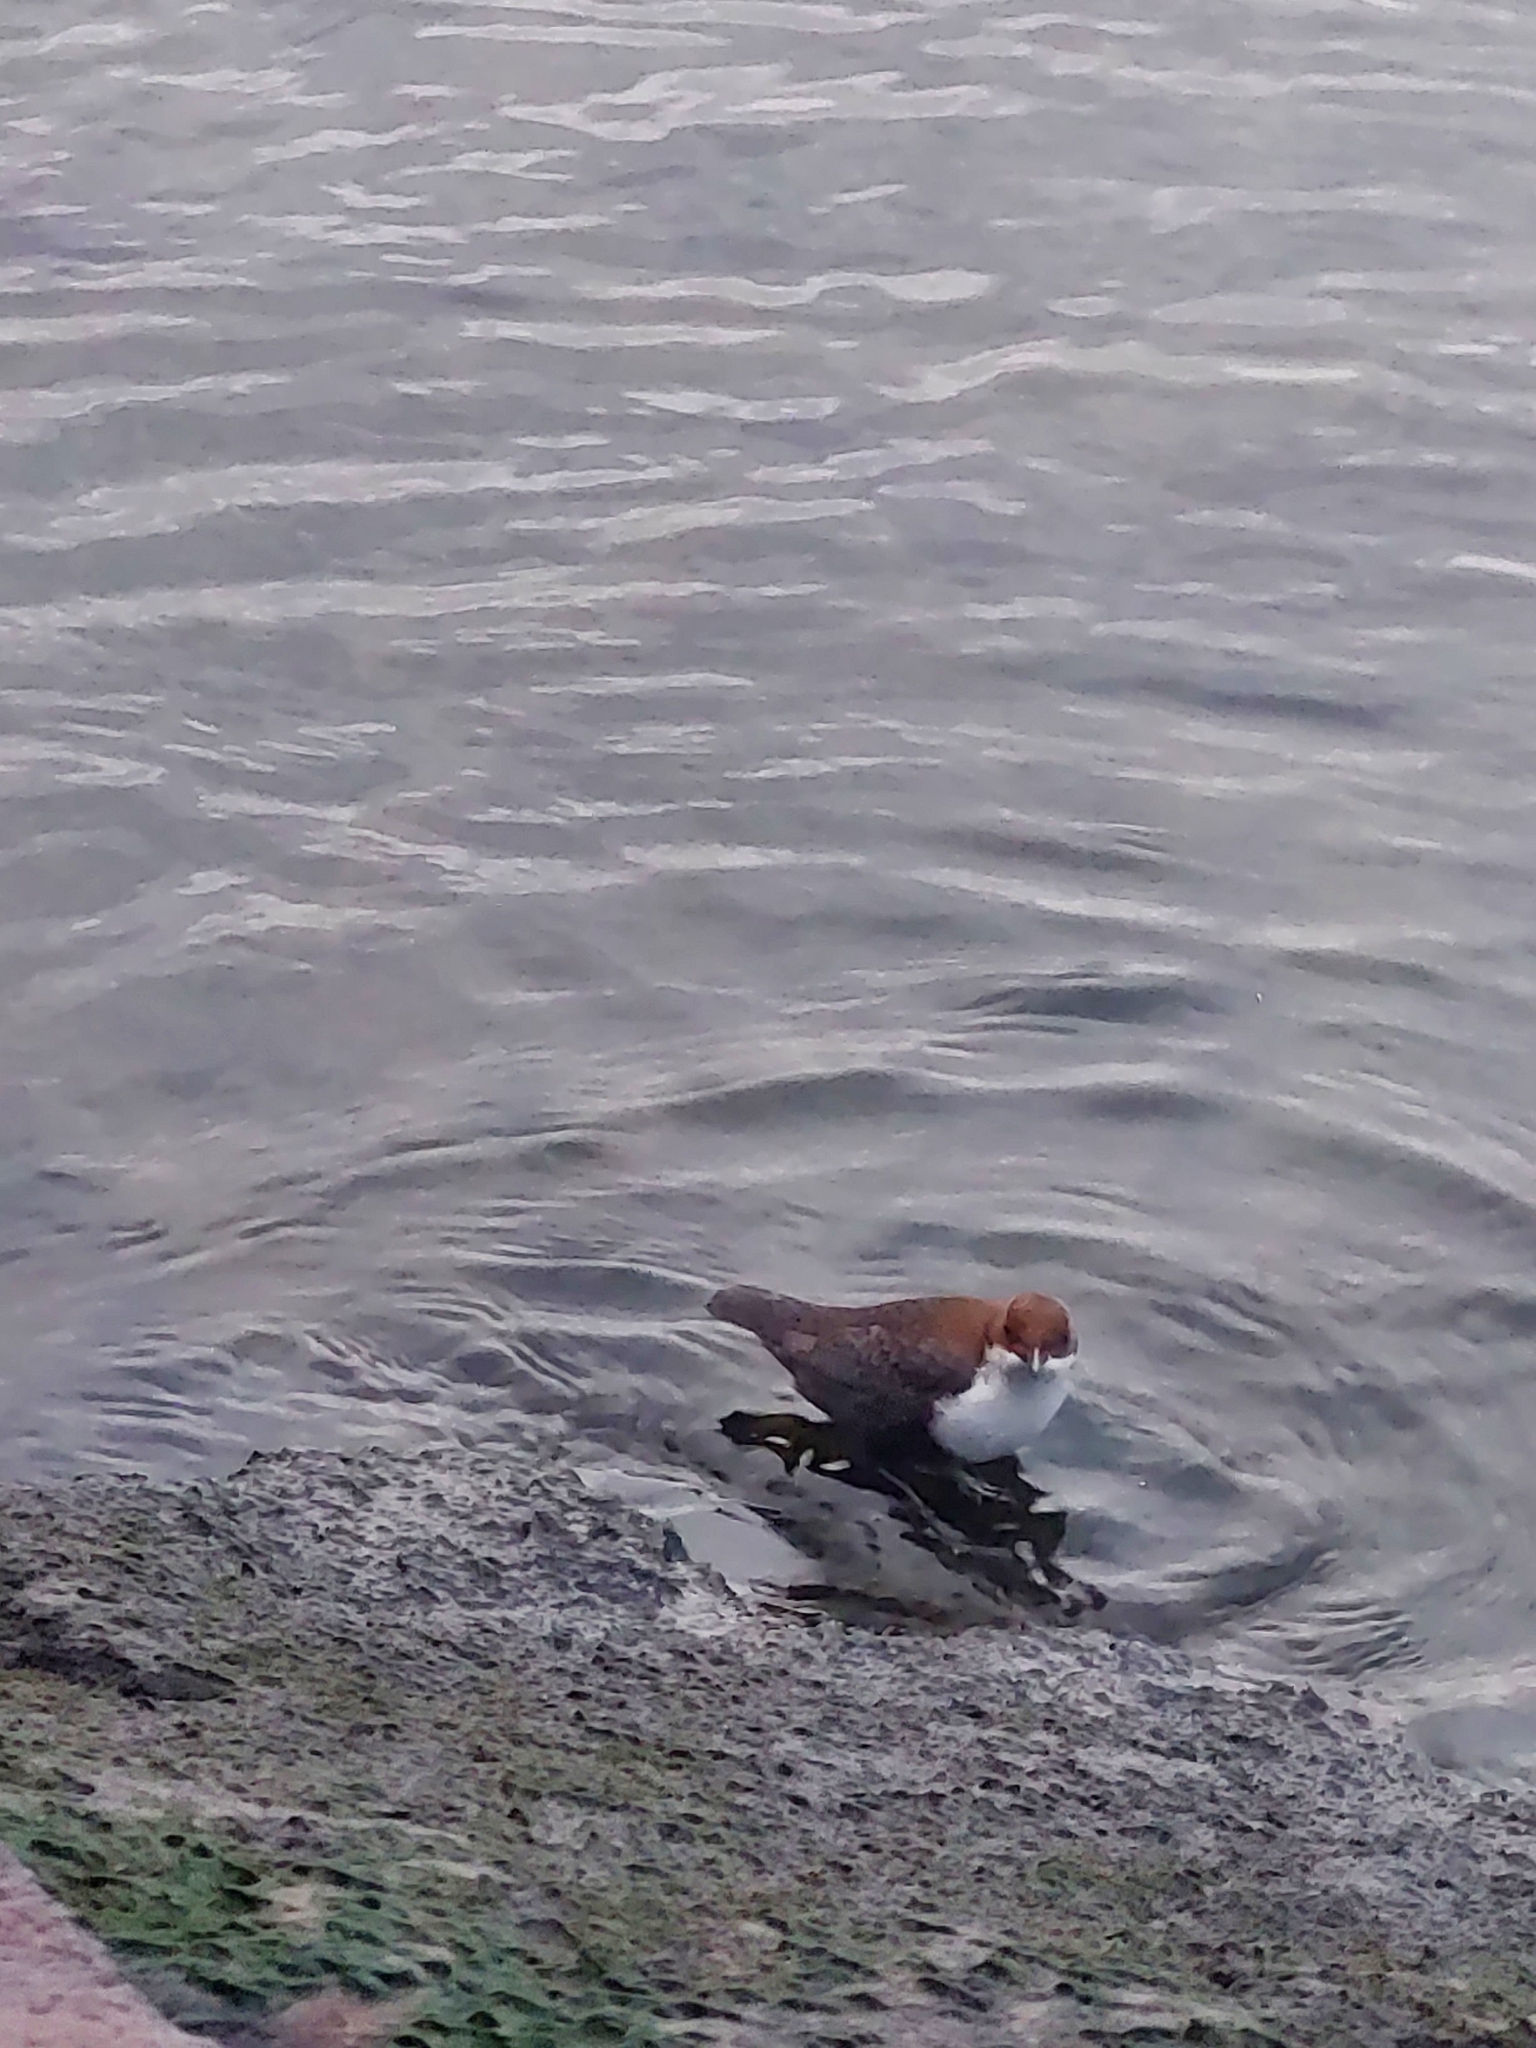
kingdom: Animalia
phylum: Chordata
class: Aves
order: Passeriformes
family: Cinclidae
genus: Cinclus
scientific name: Cinclus cinclus
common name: White-throated dipper
